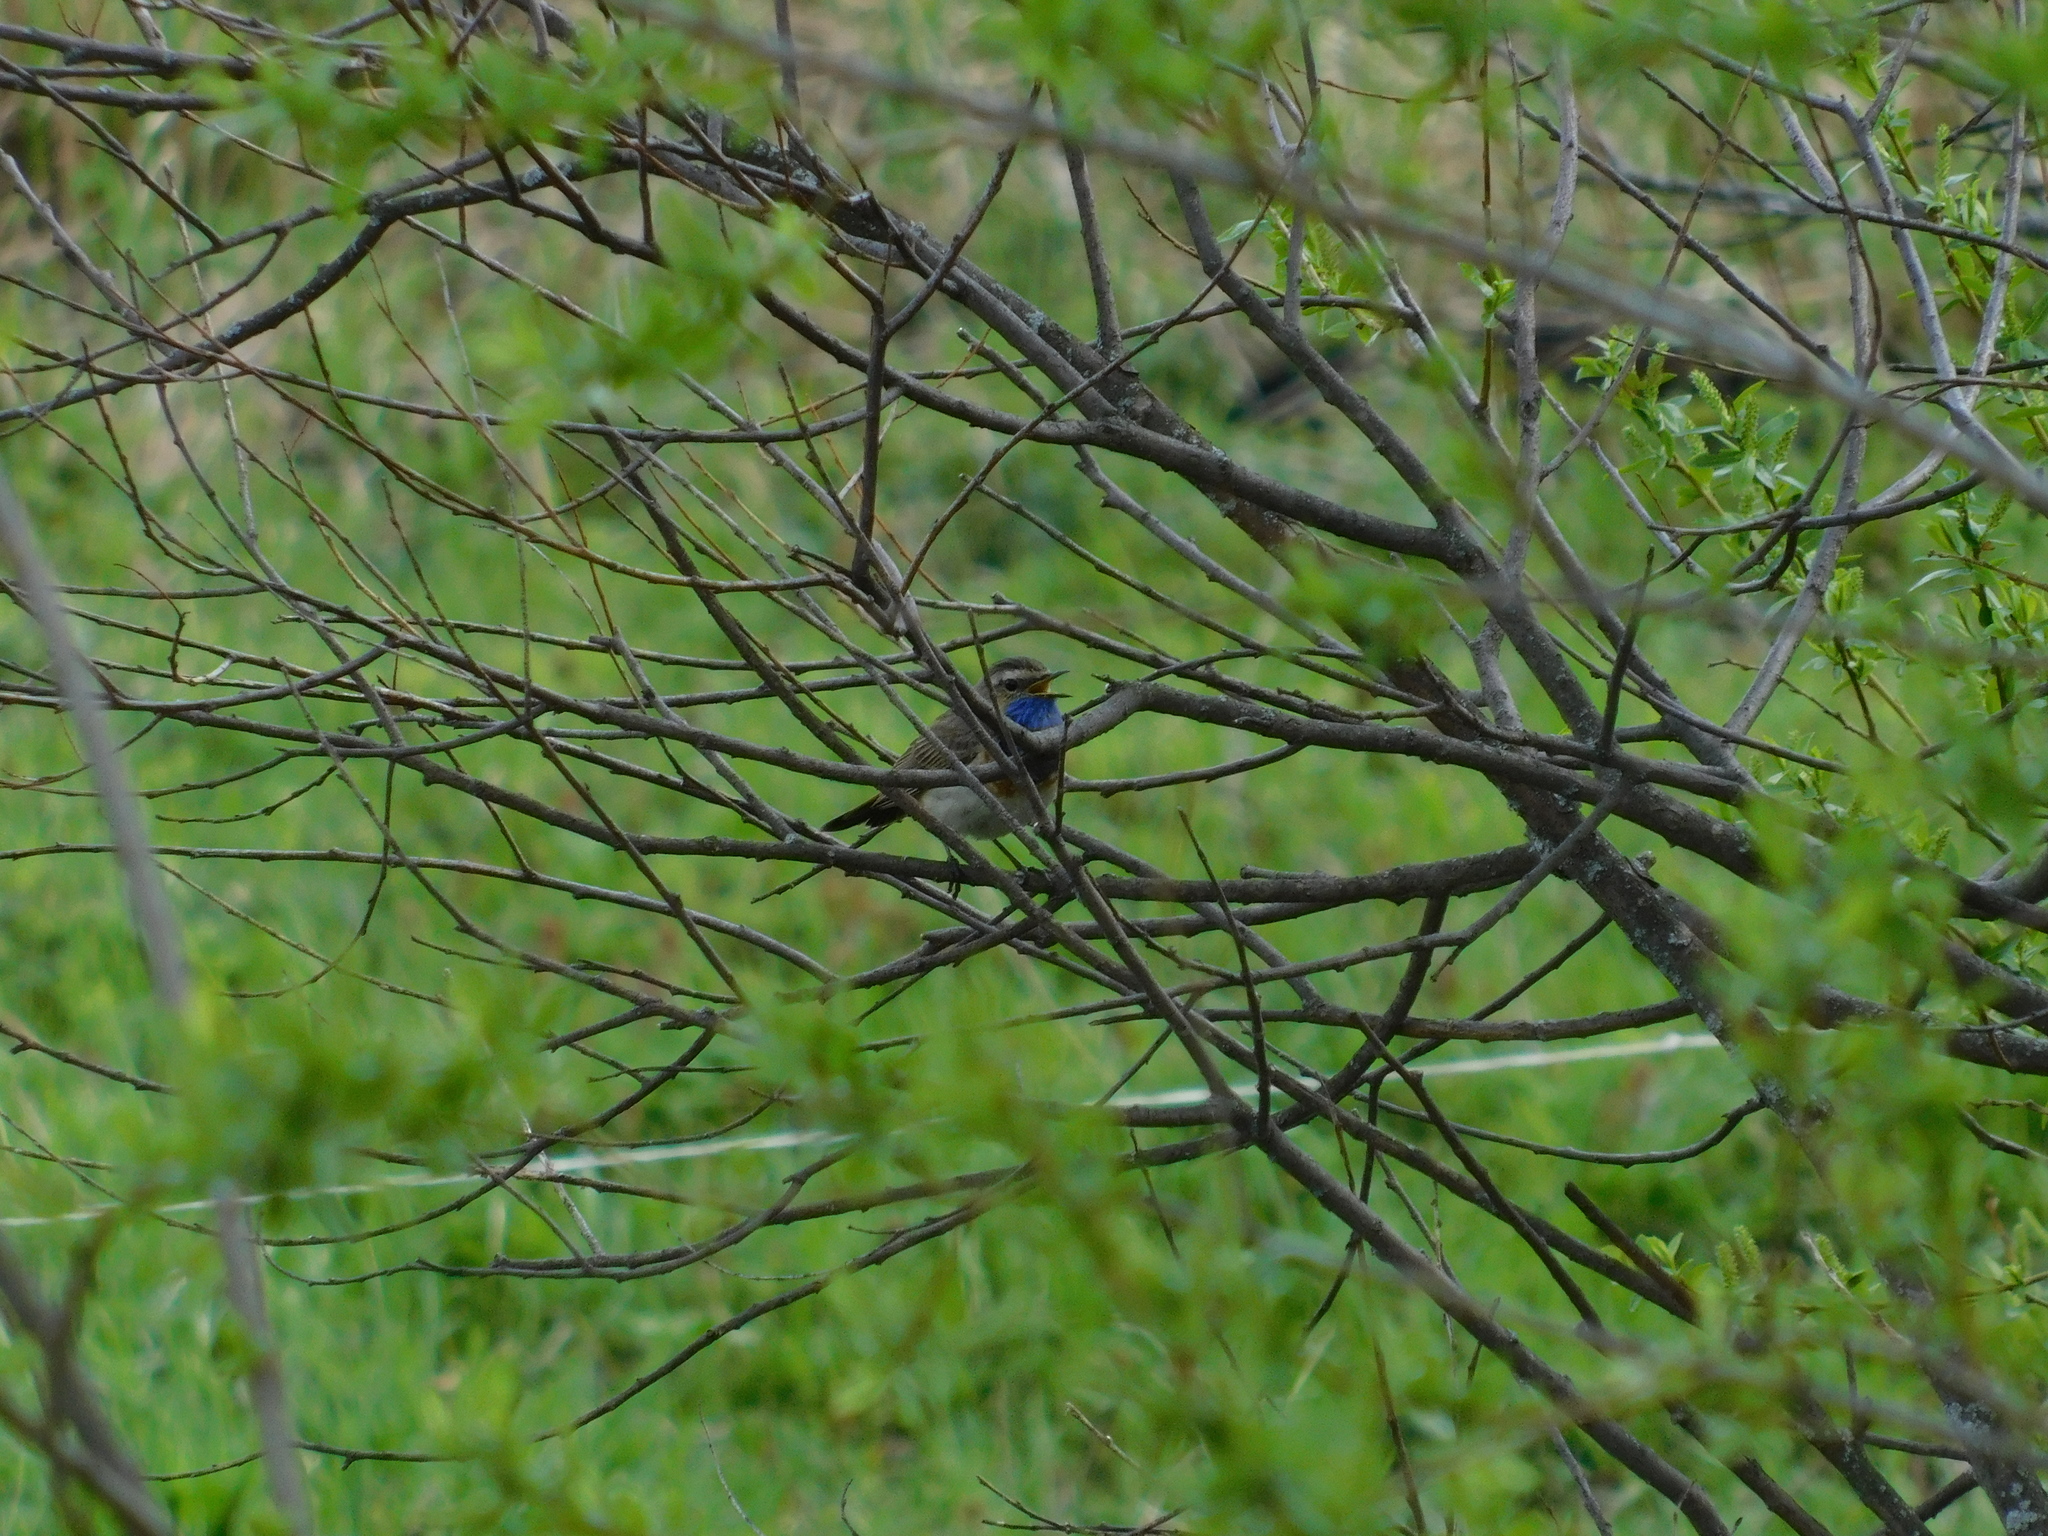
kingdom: Animalia
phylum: Chordata
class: Aves
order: Passeriformes
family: Muscicapidae
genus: Luscinia
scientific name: Luscinia svecica
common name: Bluethroat
